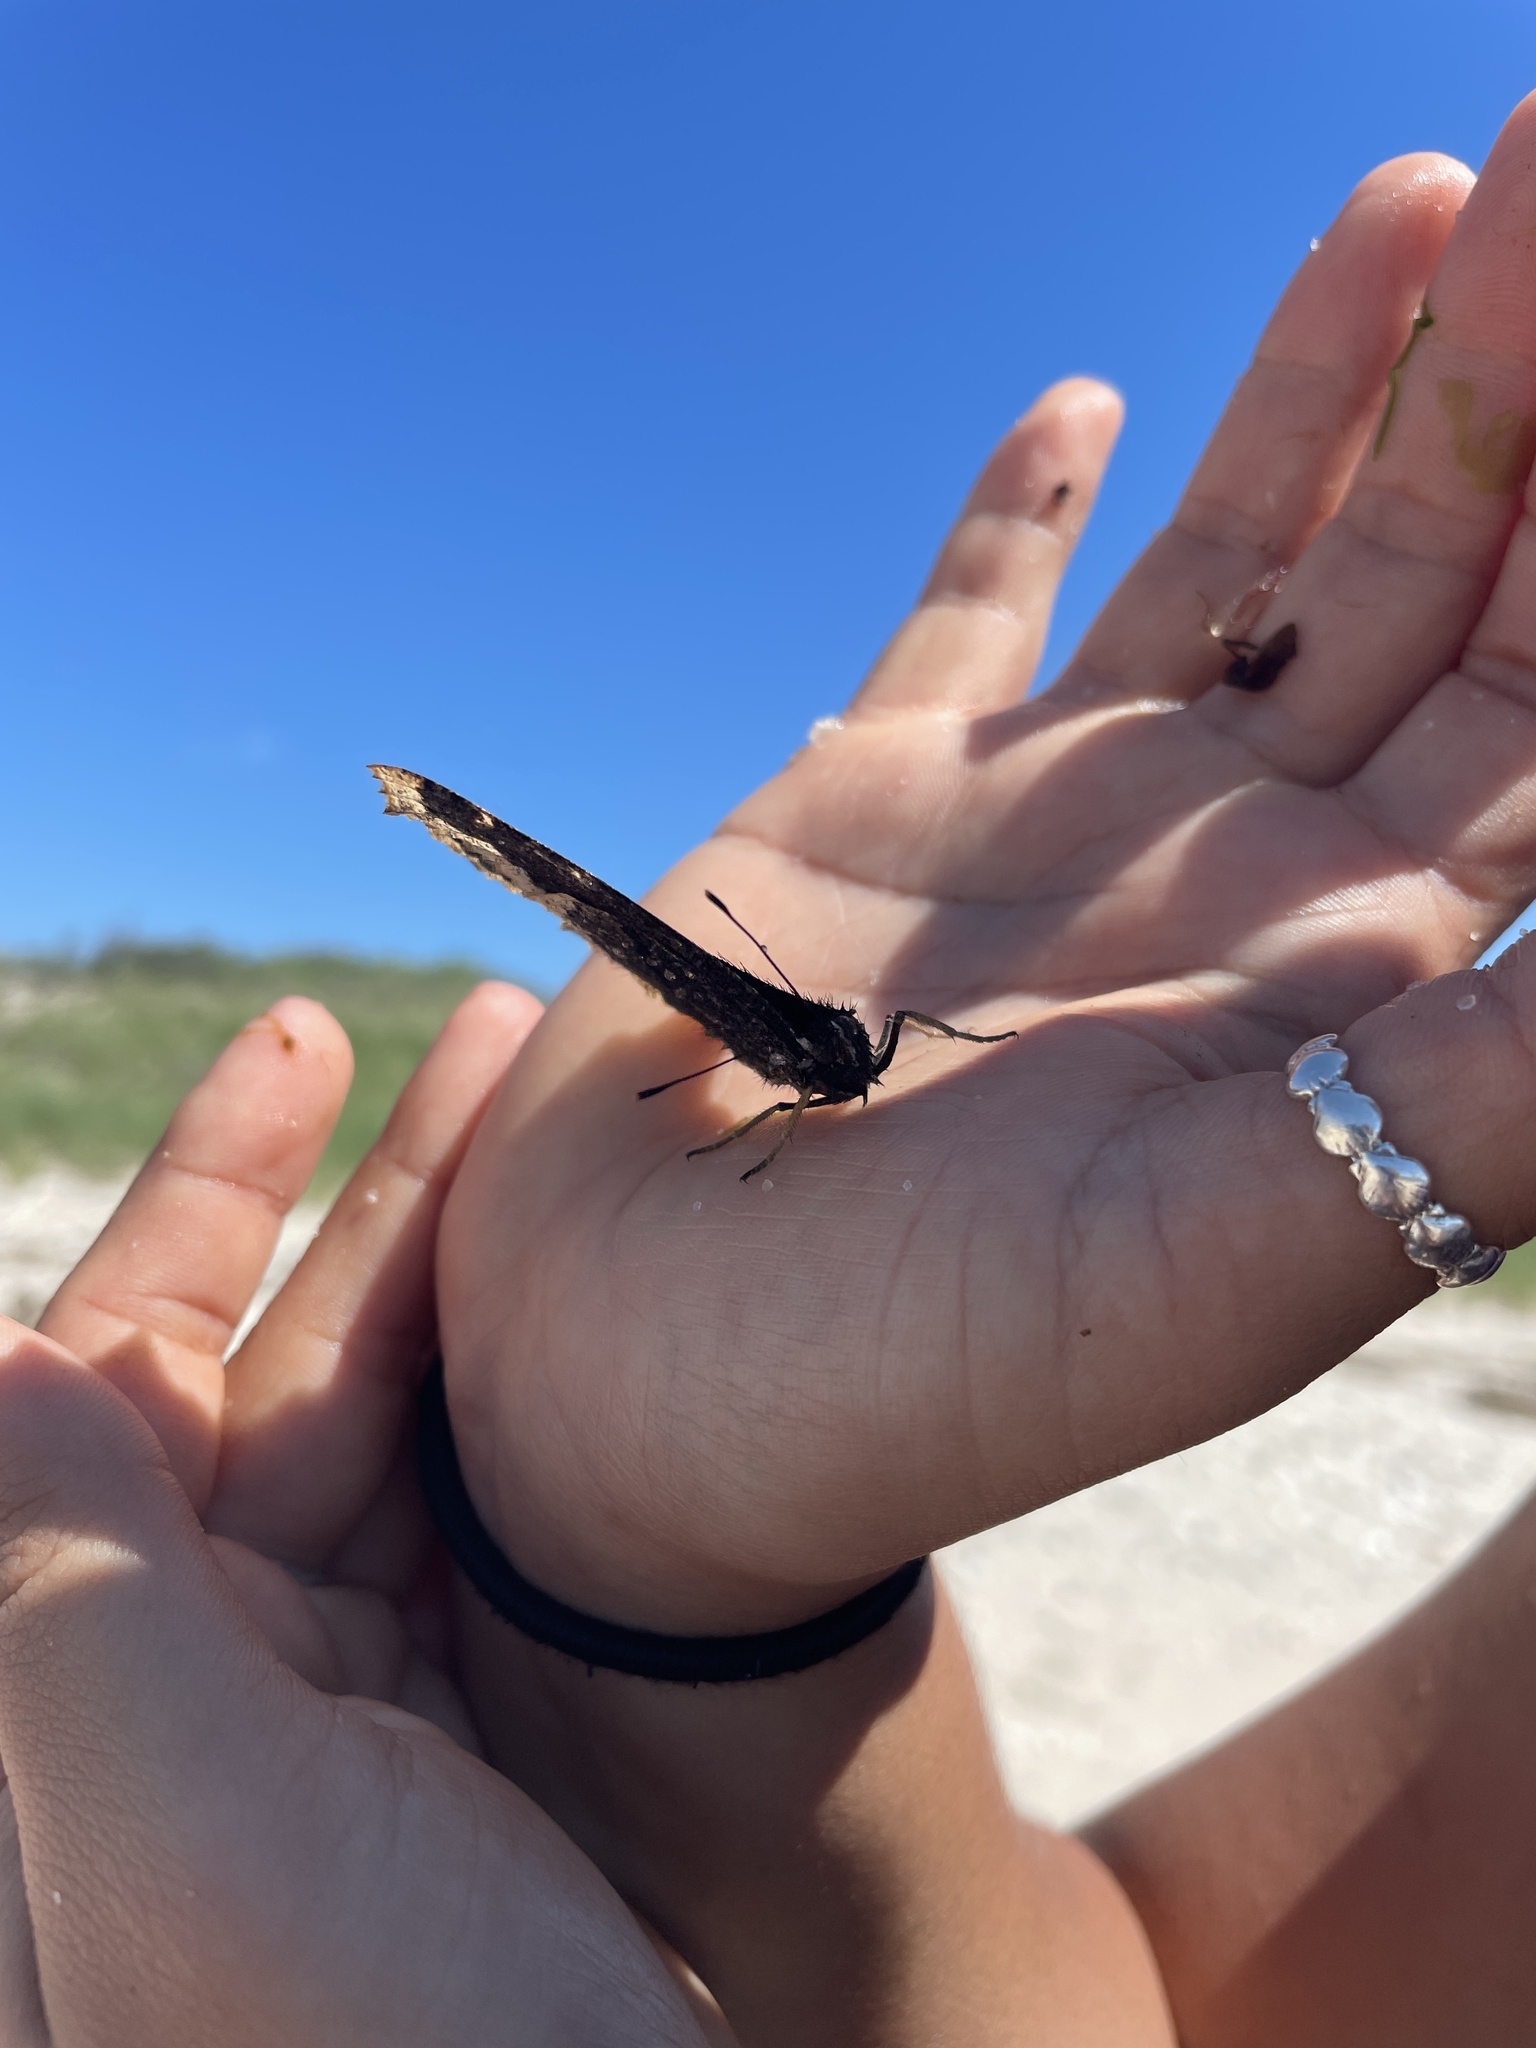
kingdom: Animalia
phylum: Arthropoda
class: Insecta
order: Lepidoptera
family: Nymphalidae
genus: Nymphalis
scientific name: Nymphalis antiopa
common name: Camberwell beauty
